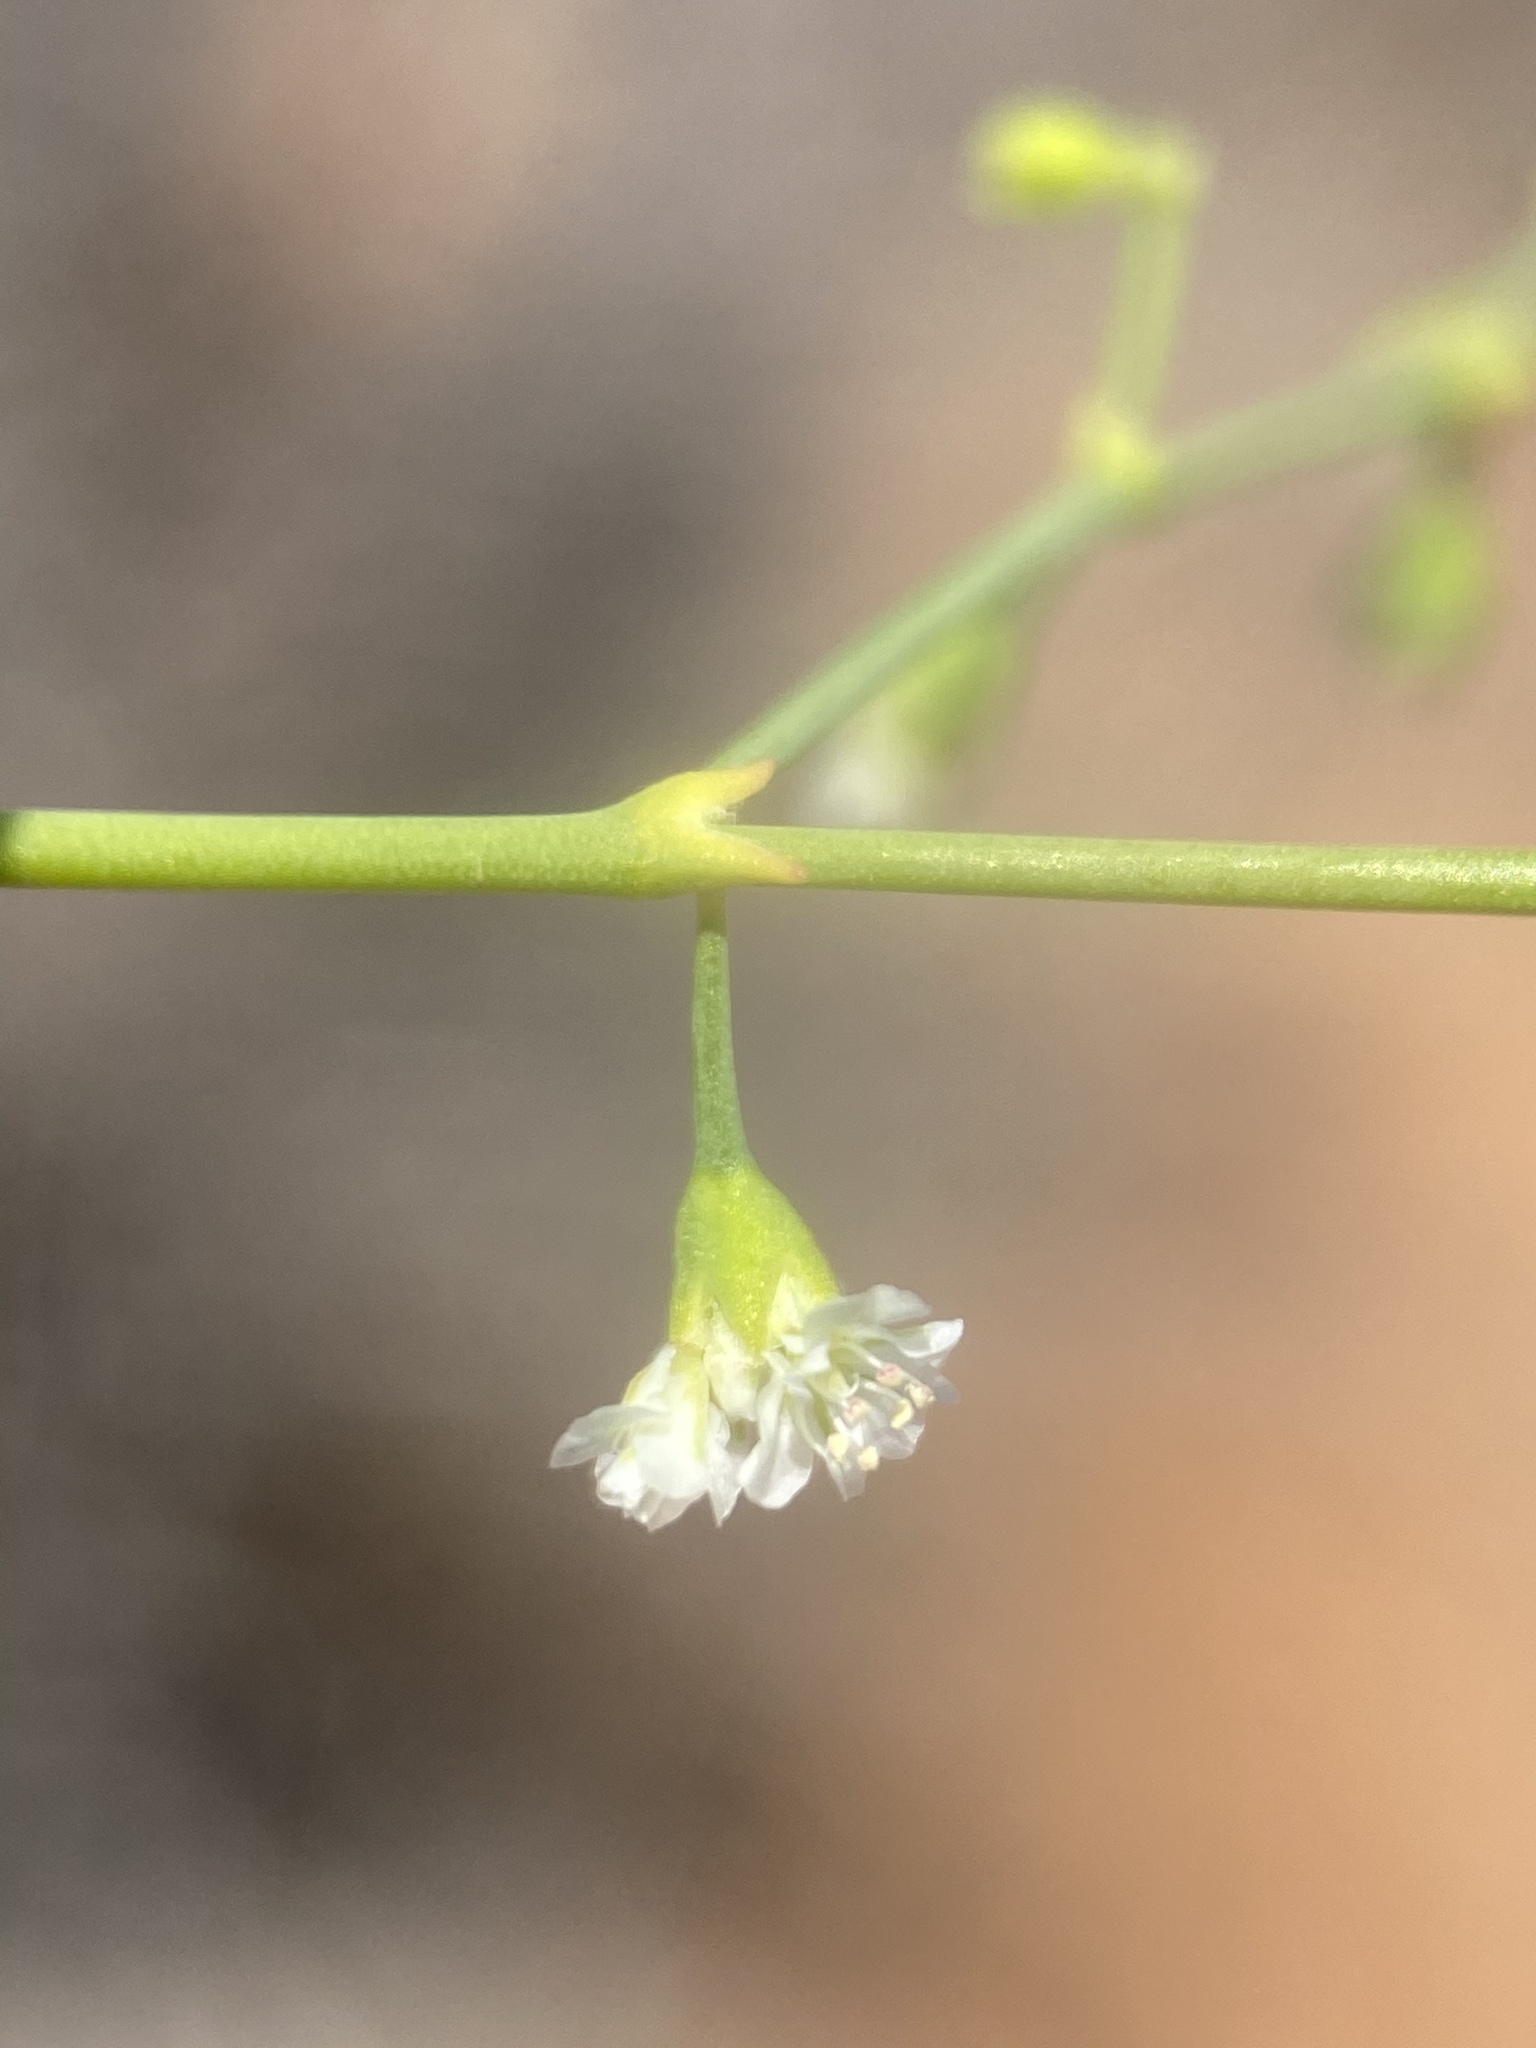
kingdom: Plantae
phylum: Tracheophyta
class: Magnoliopsida
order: Caryophyllales
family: Polygonaceae
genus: Eriogonum
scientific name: Eriogonum deflexum
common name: Skeleton-weed
